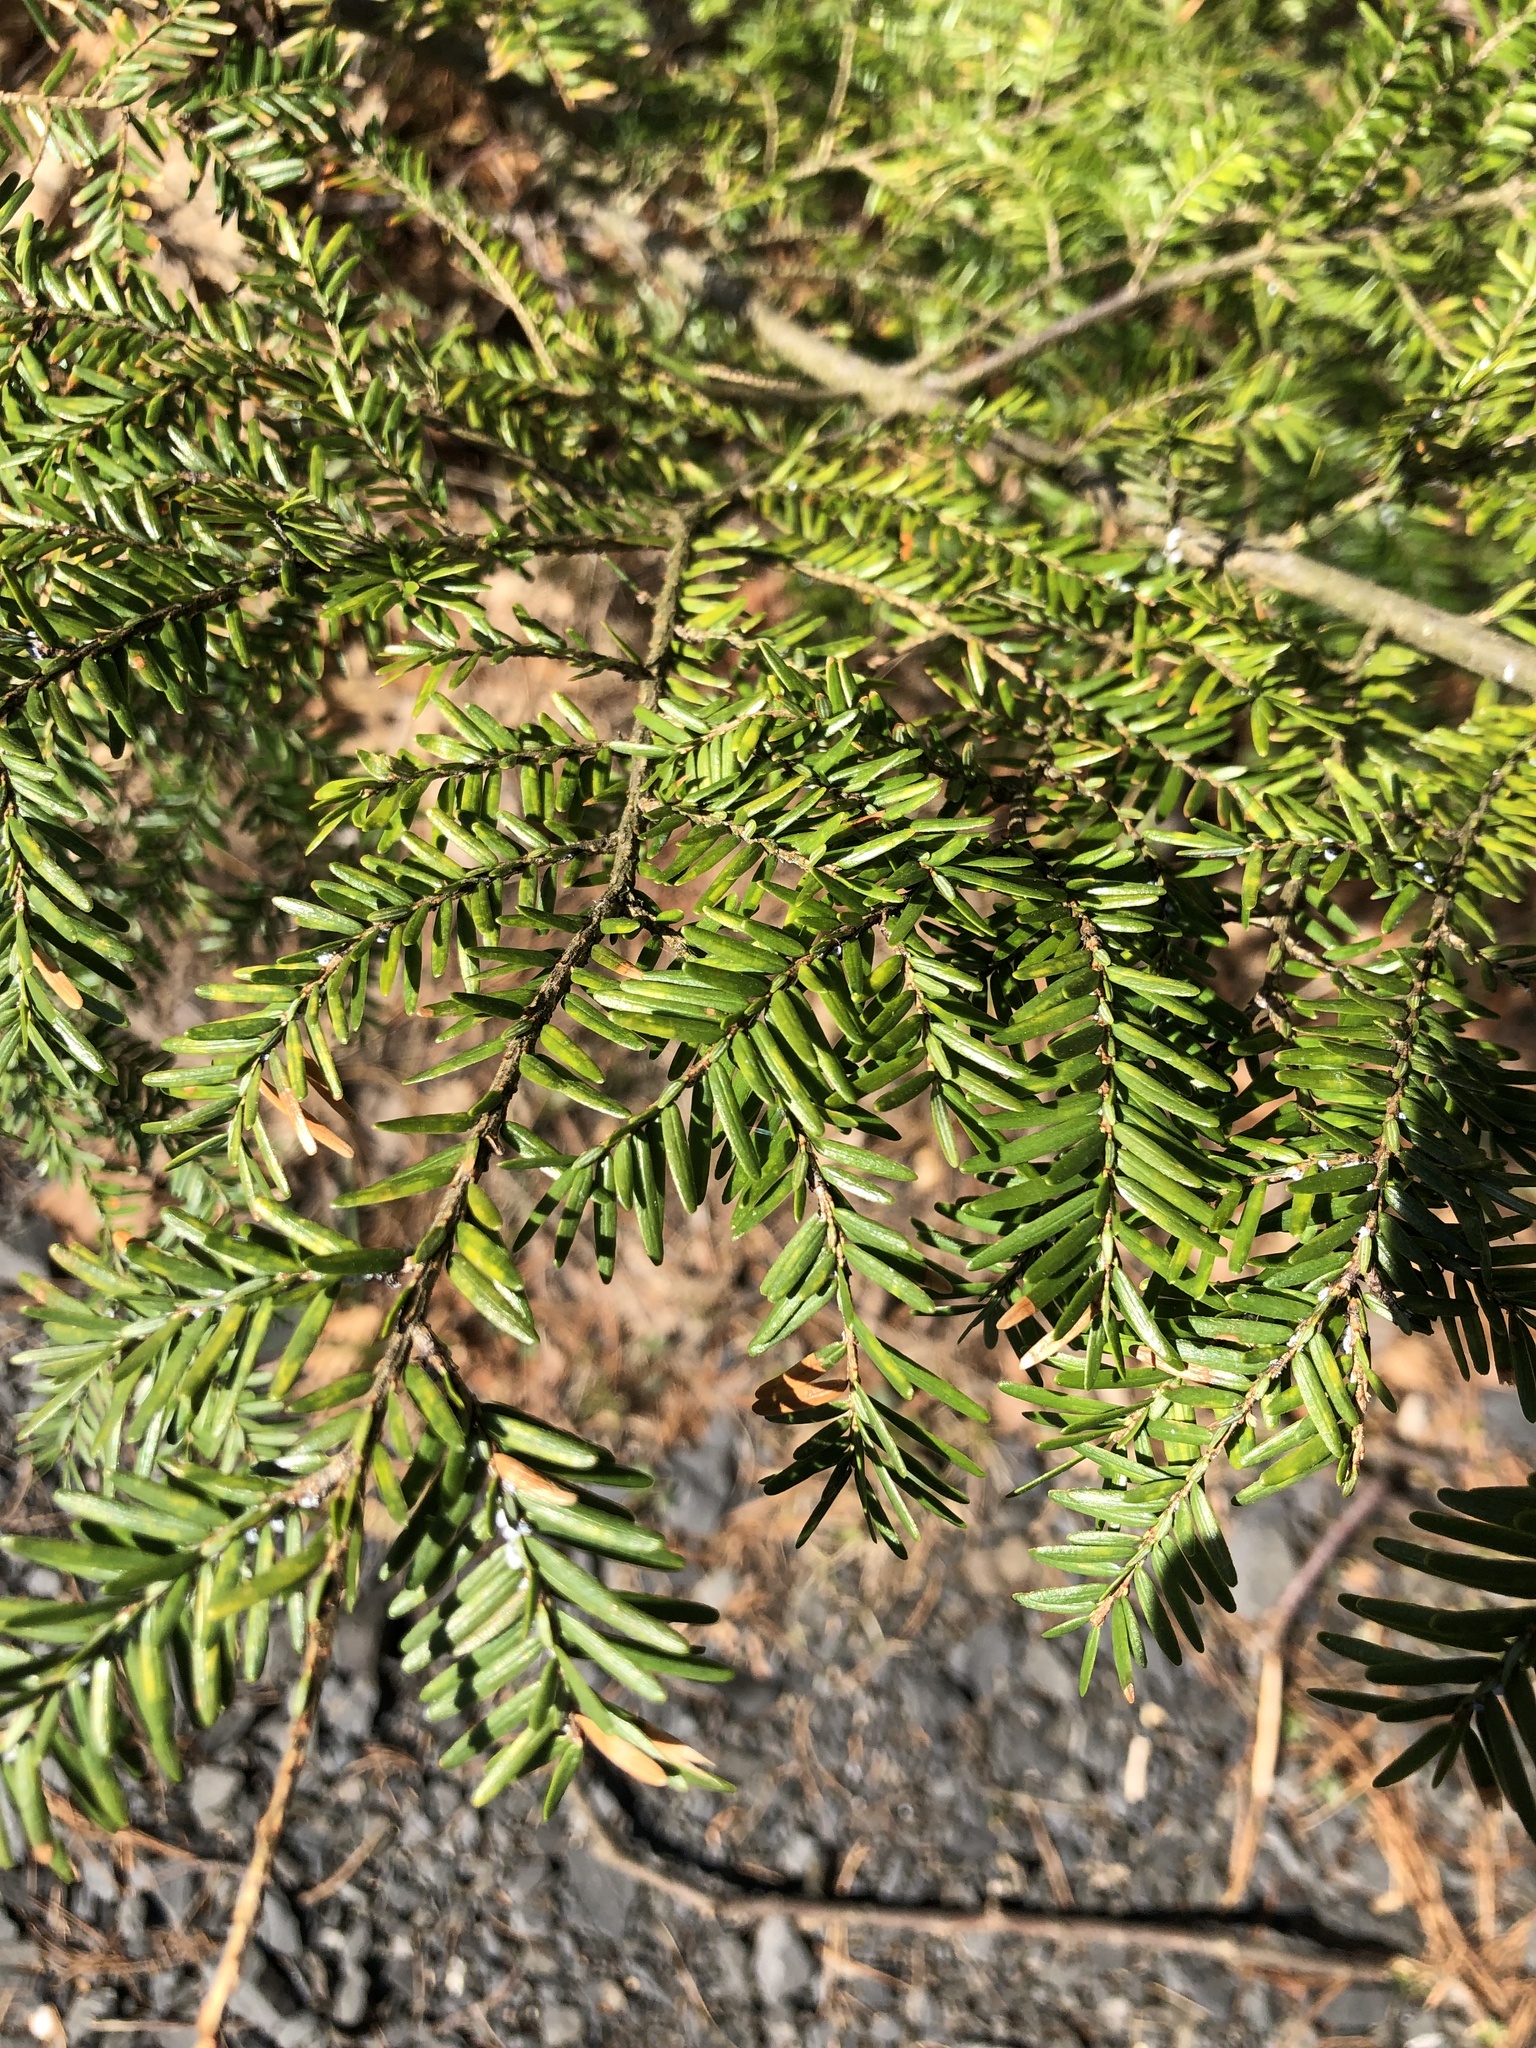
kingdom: Plantae
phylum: Tracheophyta
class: Pinopsida
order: Pinales
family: Pinaceae
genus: Tsuga
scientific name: Tsuga canadensis
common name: Eastern hemlock
